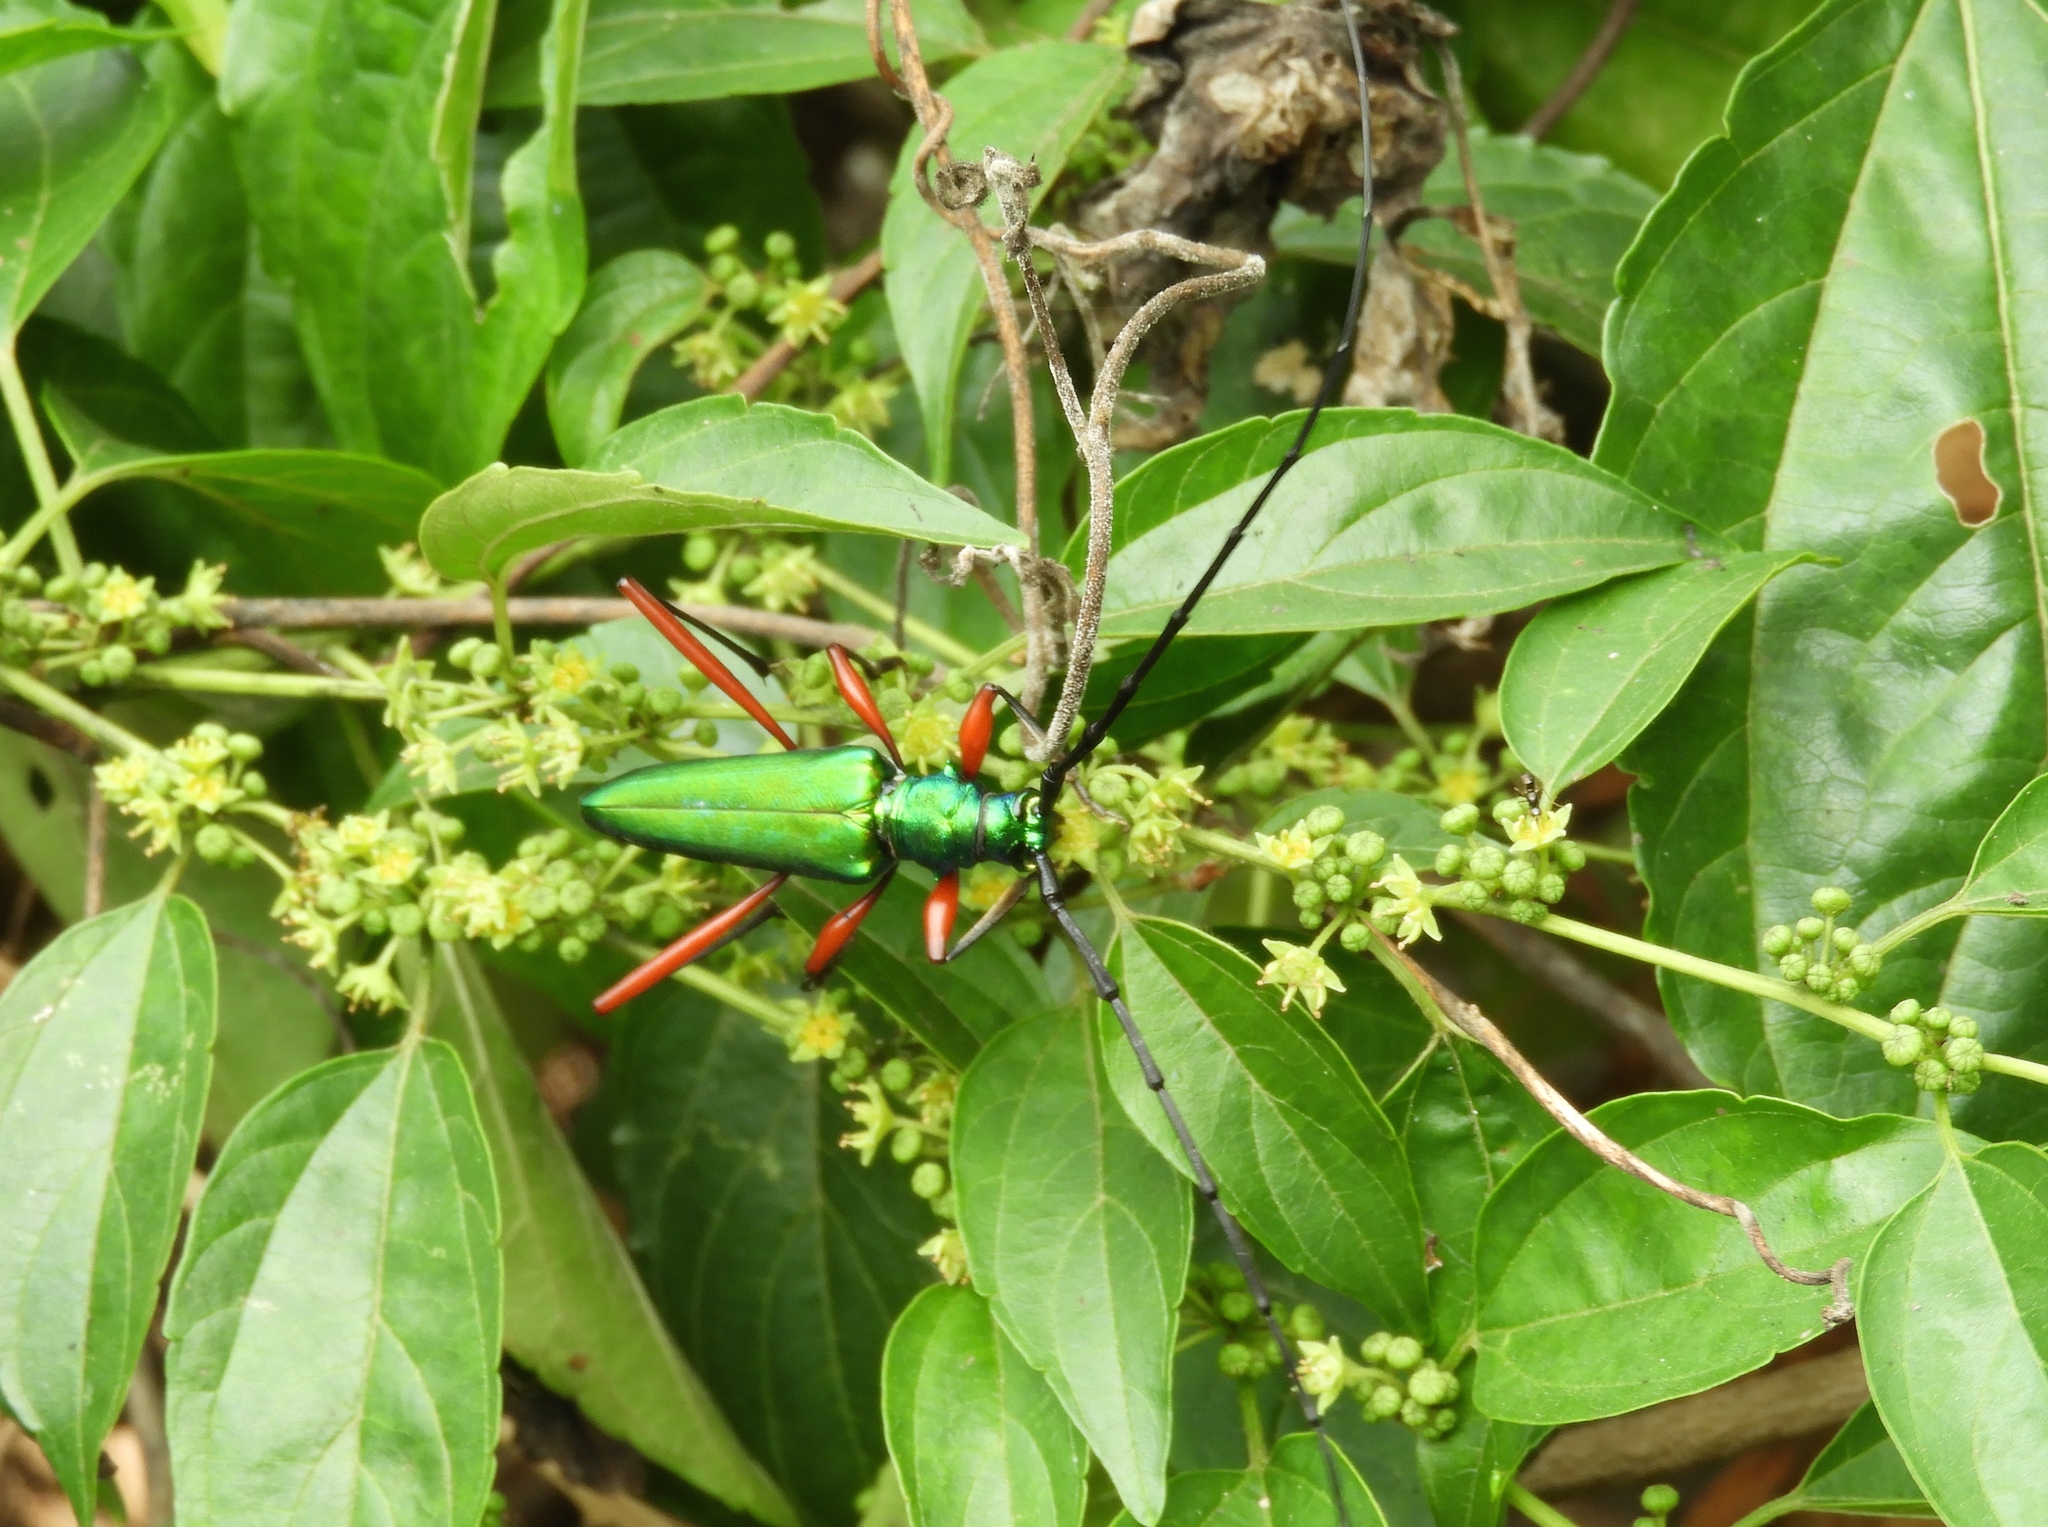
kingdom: Animalia
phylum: Arthropoda
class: Insecta
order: Coleoptera
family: Cerambycidae
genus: Plinthocoelium
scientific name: Plinthocoelium chilensis
